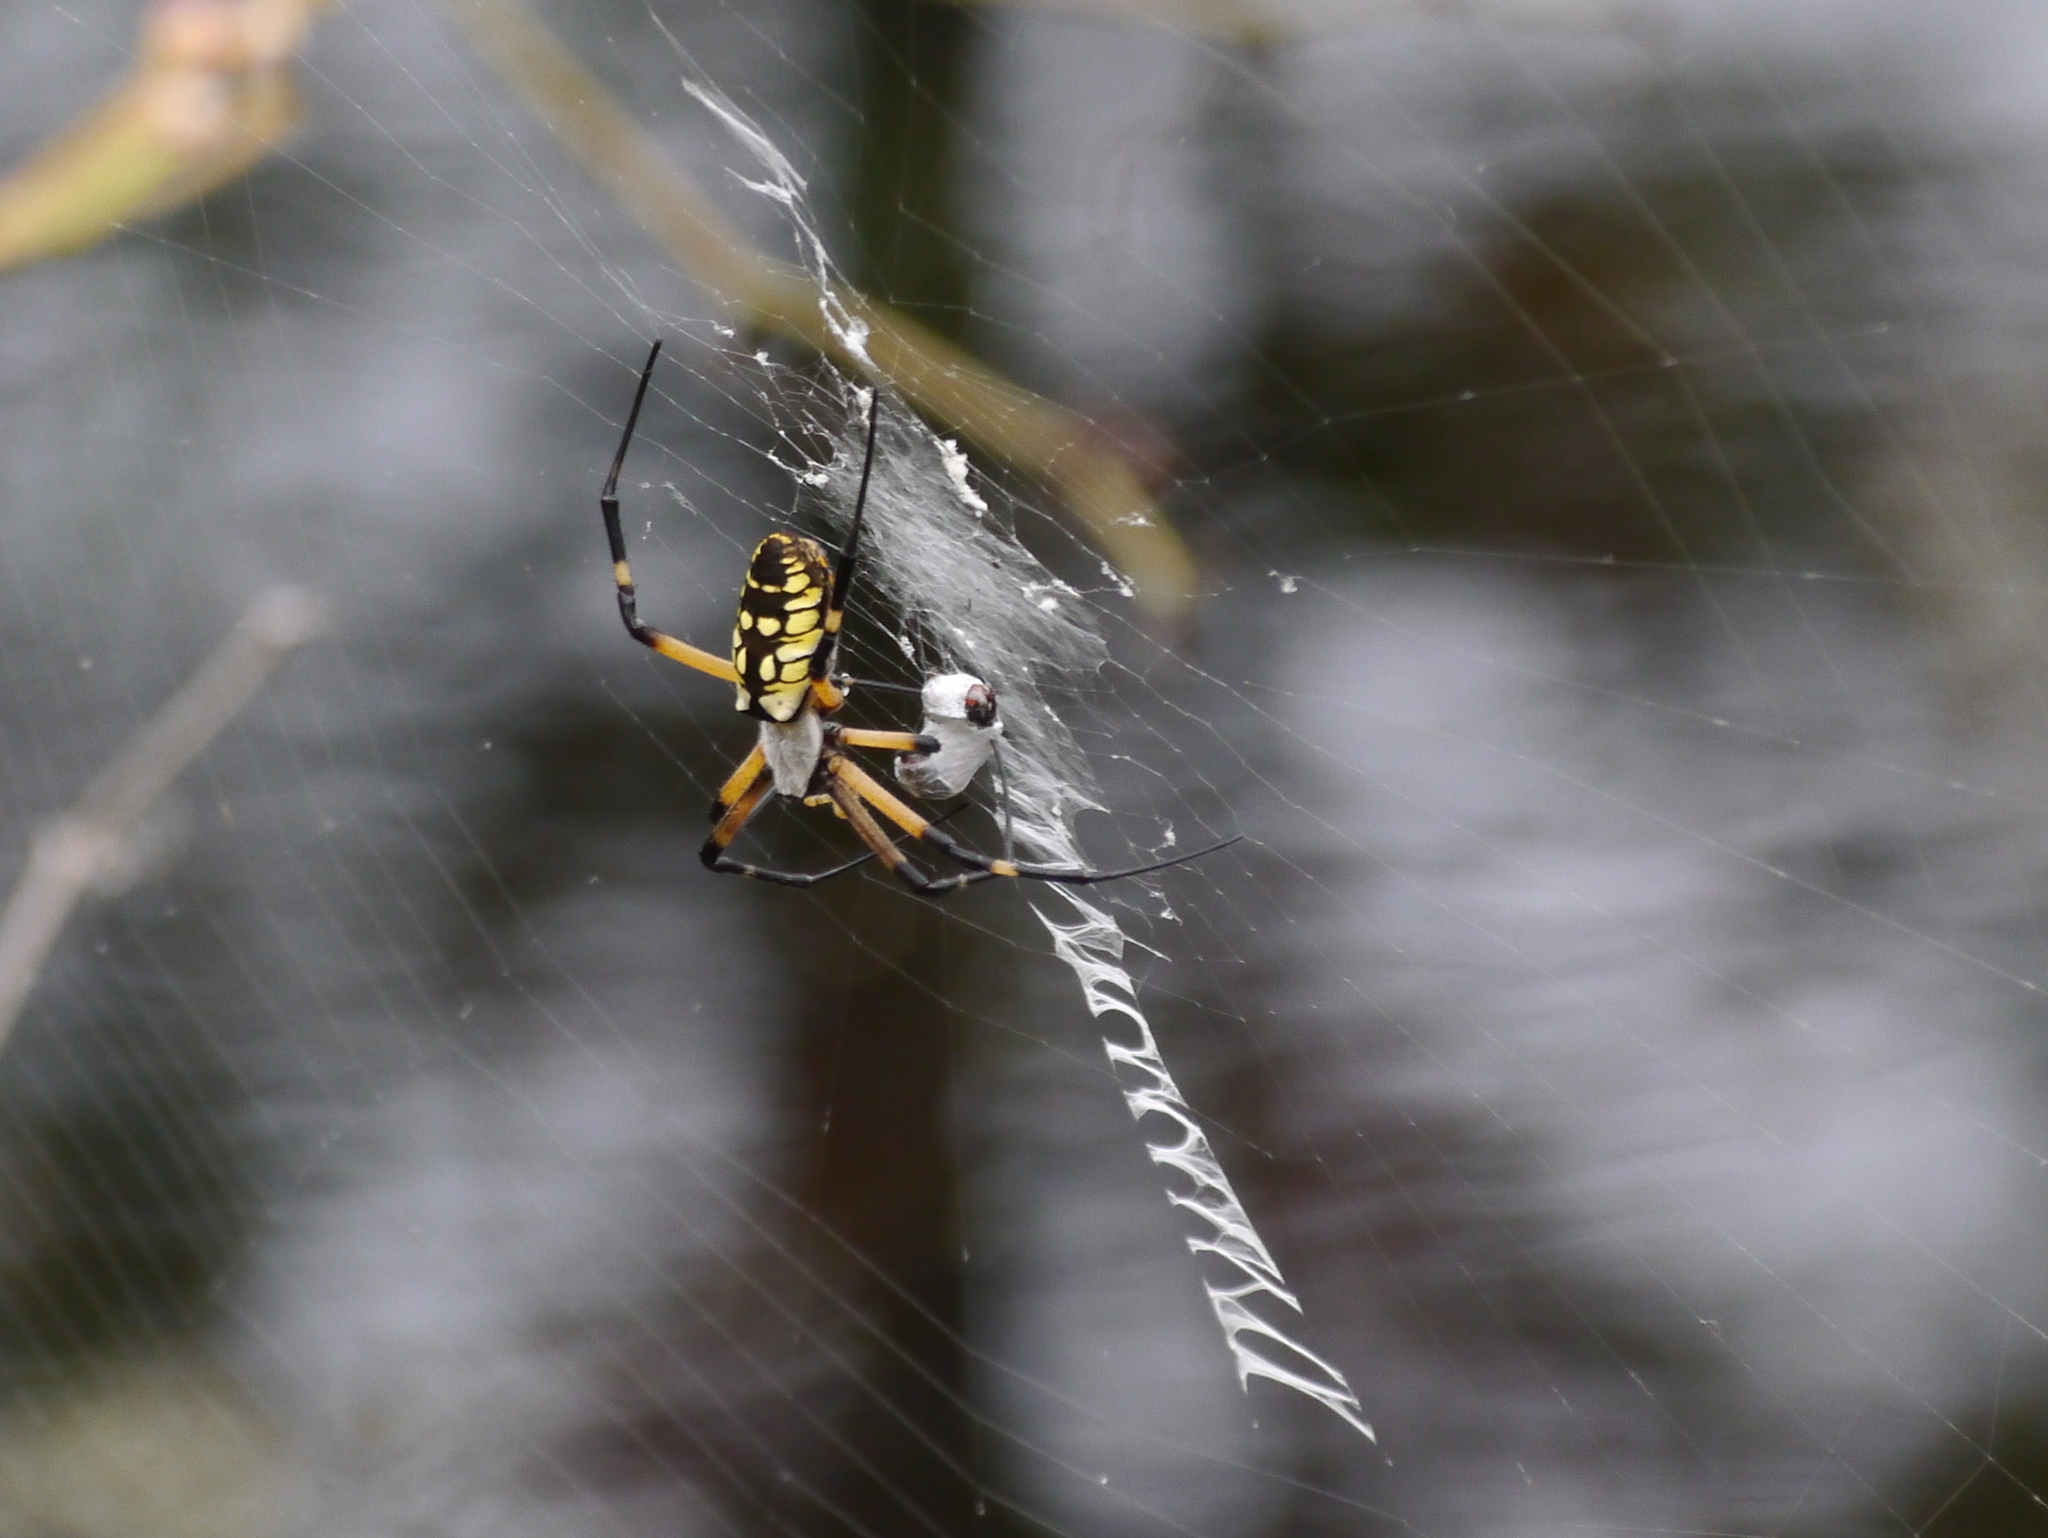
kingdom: Animalia
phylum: Arthropoda
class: Arachnida
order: Araneae
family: Araneidae
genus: Argiope
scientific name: Argiope aurantia
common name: Orb weavers
